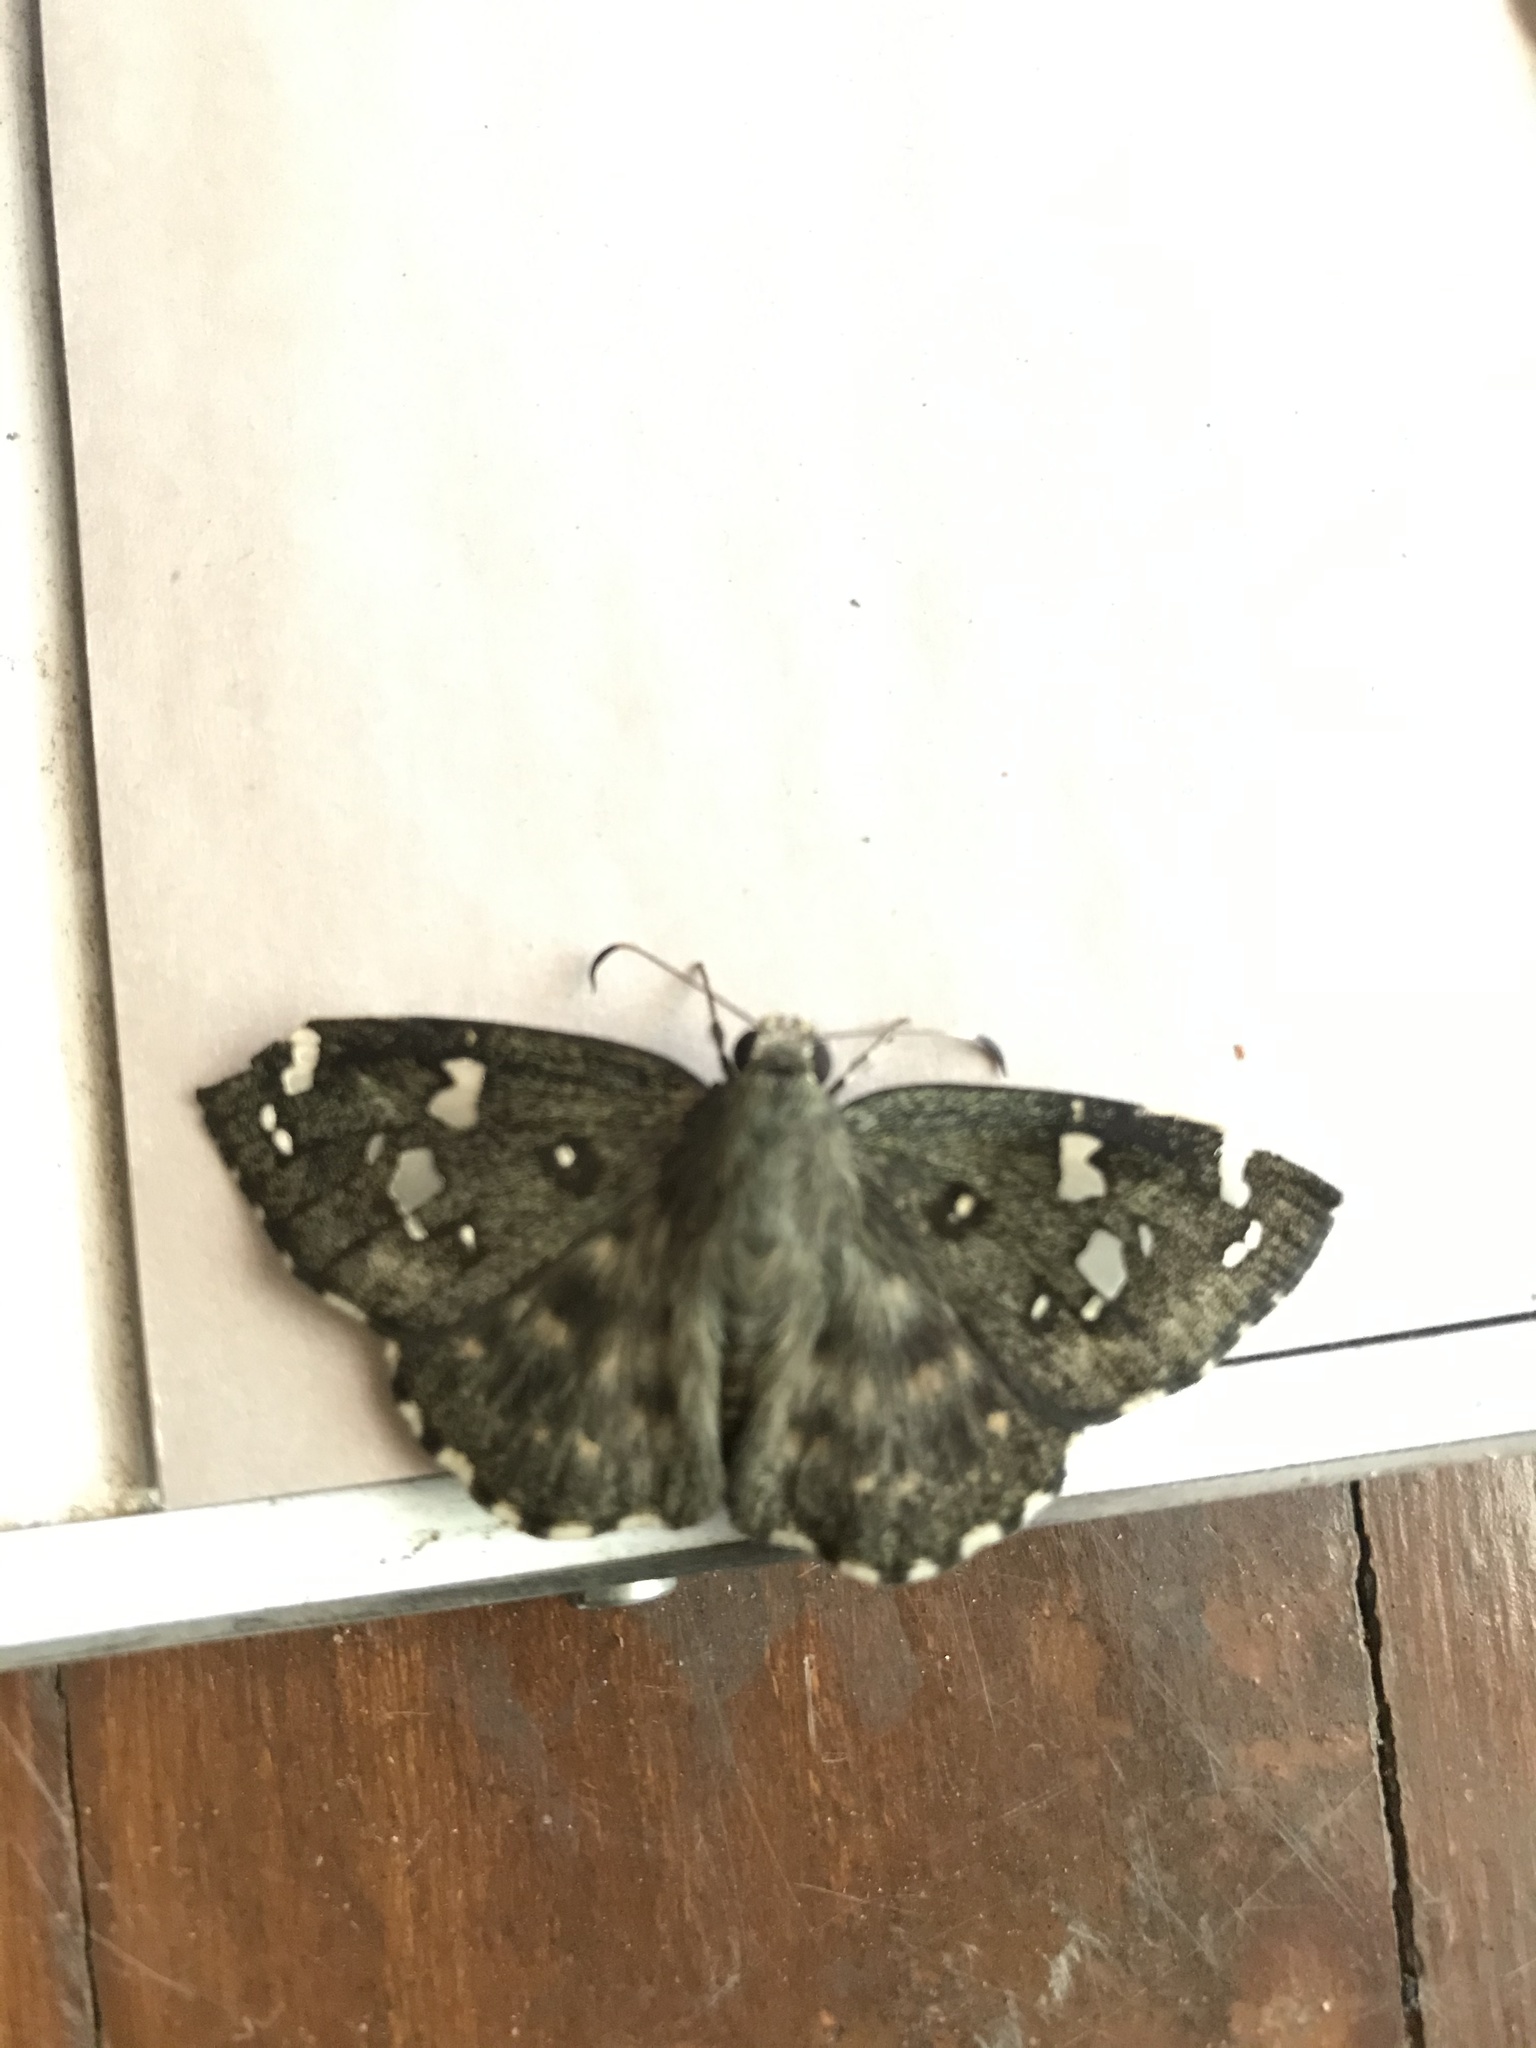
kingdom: Animalia
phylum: Arthropoda
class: Insecta
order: Lepidoptera
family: Hesperiidae
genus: Celaenorrhinus
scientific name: Celaenorrhinus ambareesa
